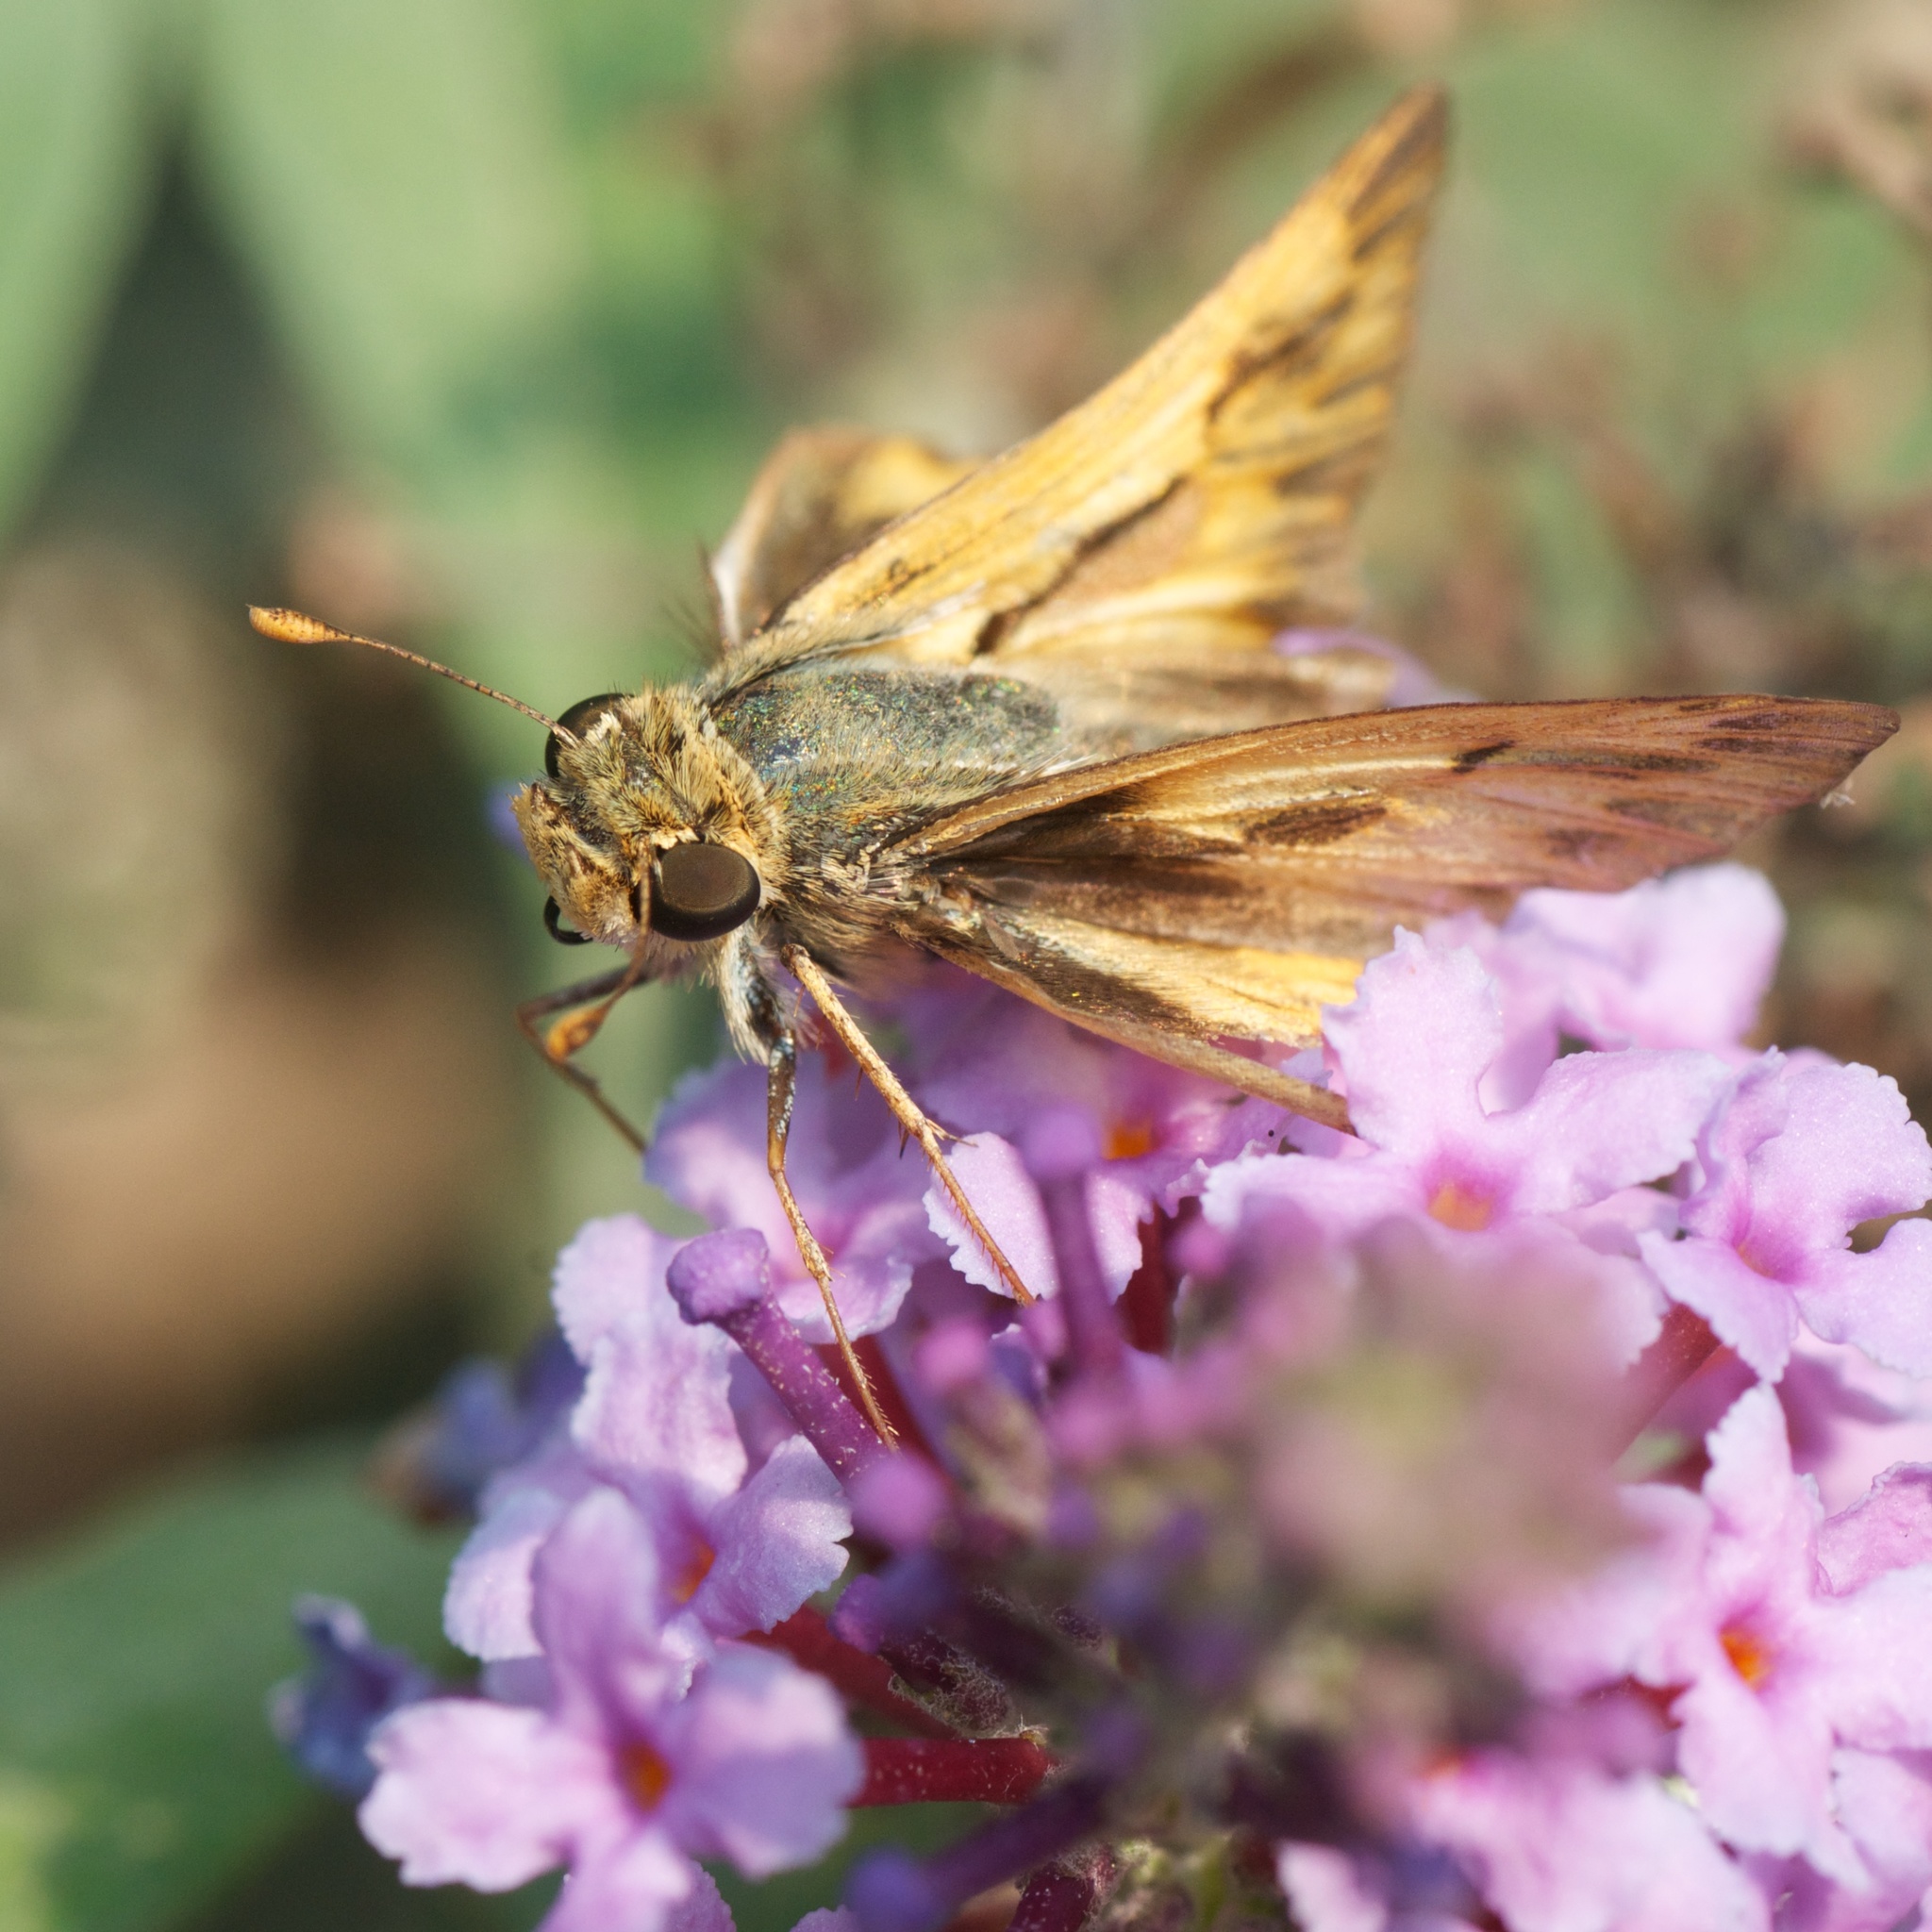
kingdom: Animalia
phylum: Arthropoda
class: Insecta
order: Lepidoptera
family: Hesperiidae
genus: Hylephila
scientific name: Hylephila phyleus
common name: Fiery skipper
